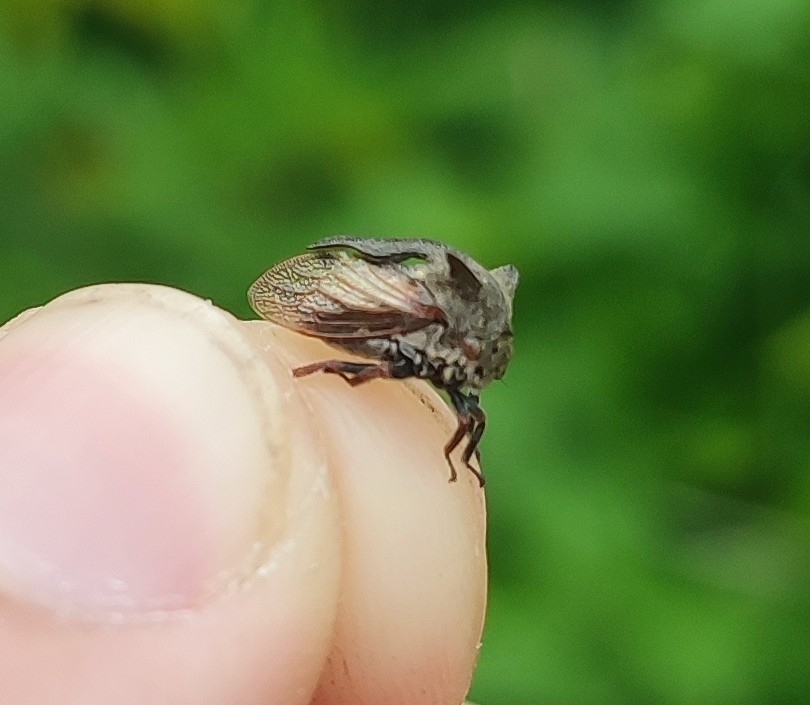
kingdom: Animalia
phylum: Arthropoda
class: Insecta
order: Hemiptera
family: Membracidae
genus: Centrotus
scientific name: Centrotus cornuta
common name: Treehopper
